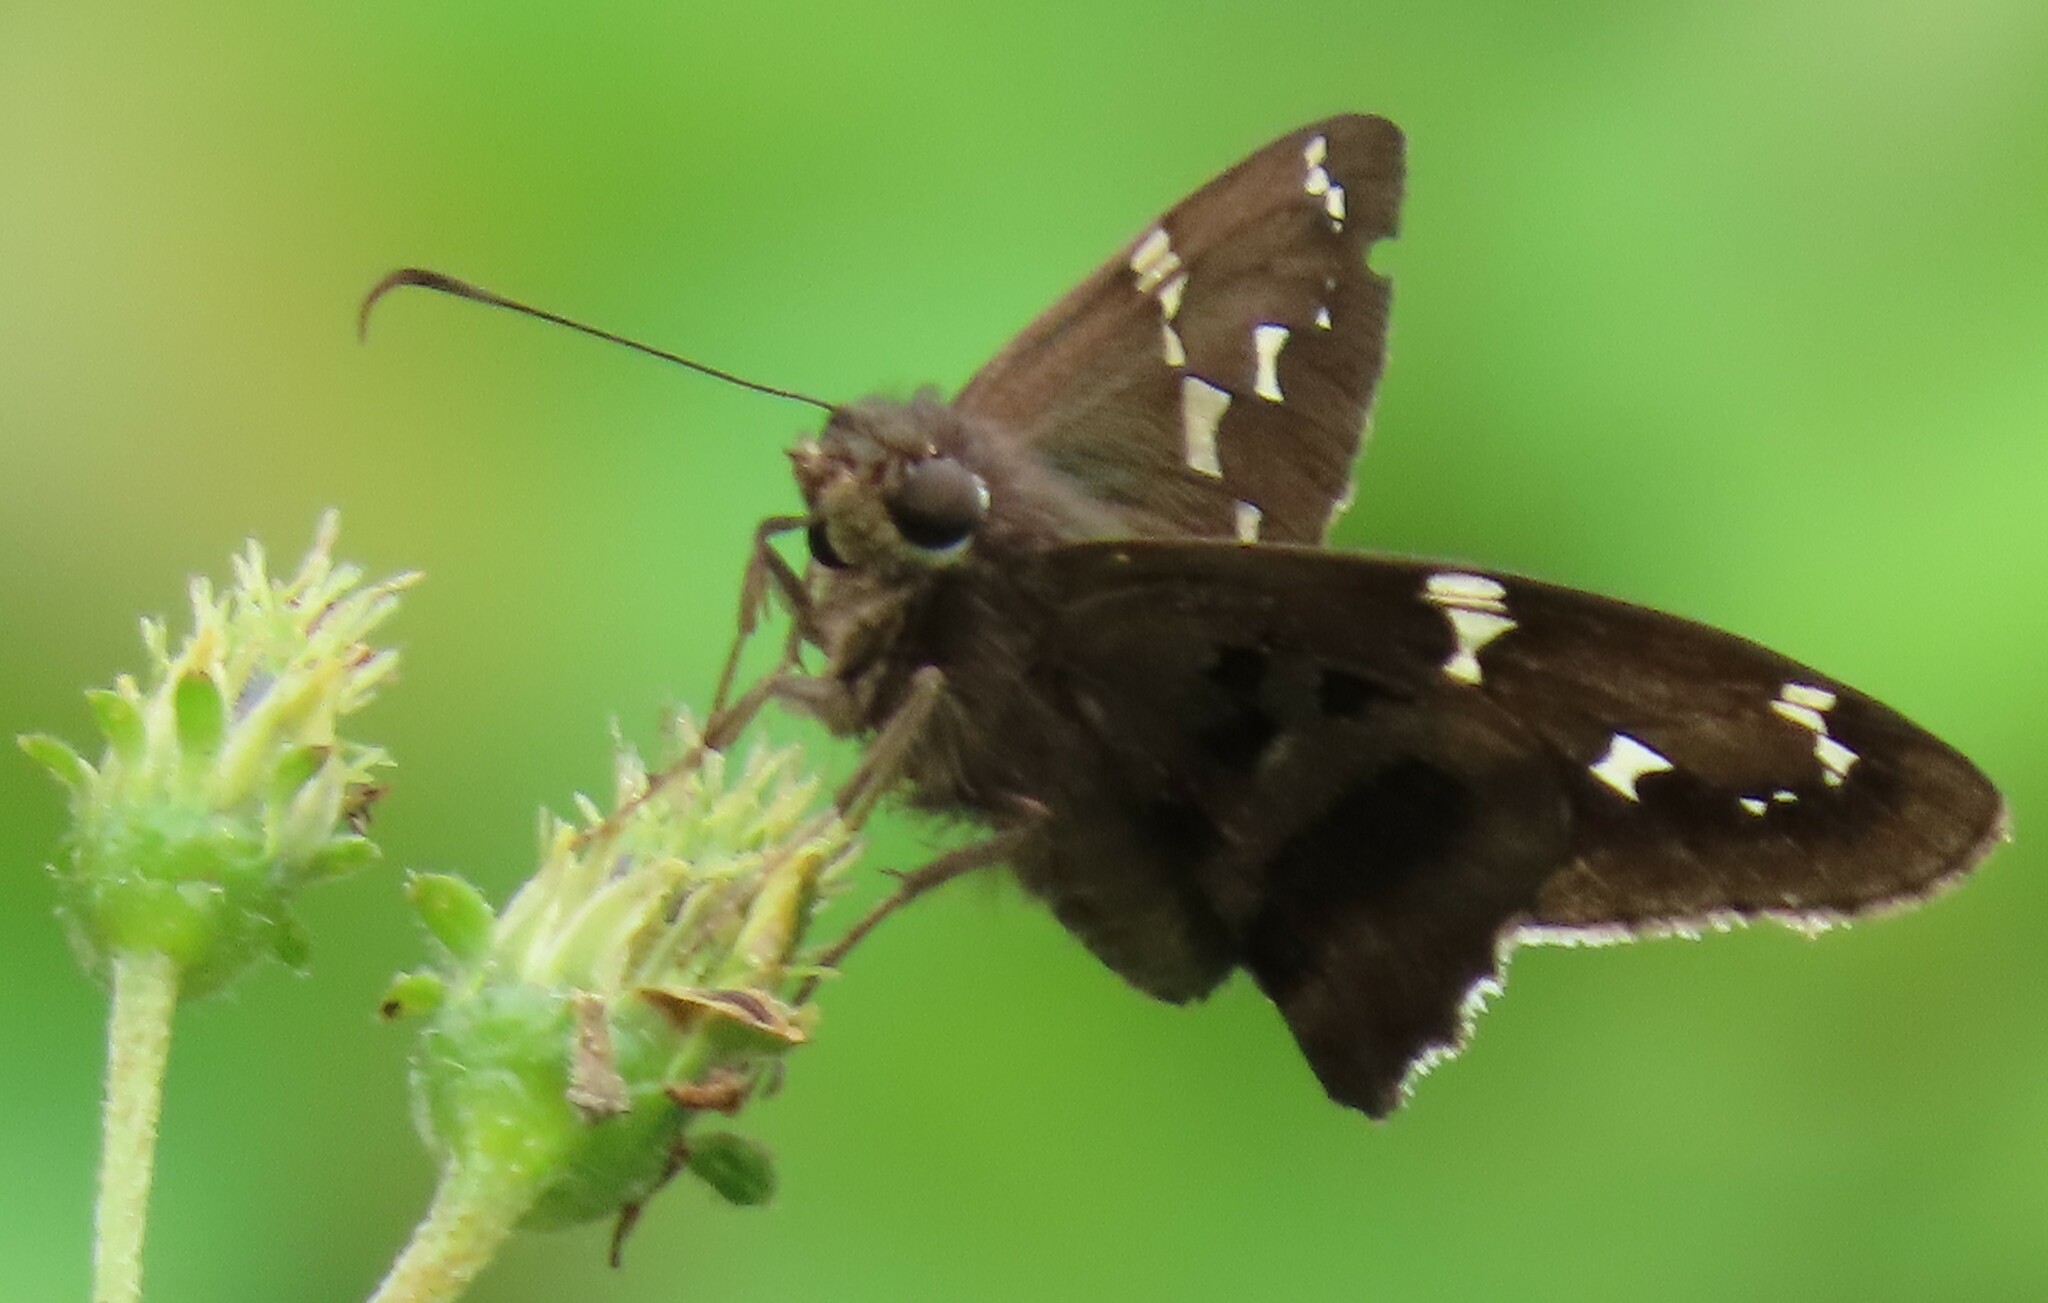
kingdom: Animalia
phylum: Arthropoda
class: Insecta
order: Lepidoptera
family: Hesperiidae
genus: Urbanus
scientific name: Urbanus proteus
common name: Long-tailed skipper
